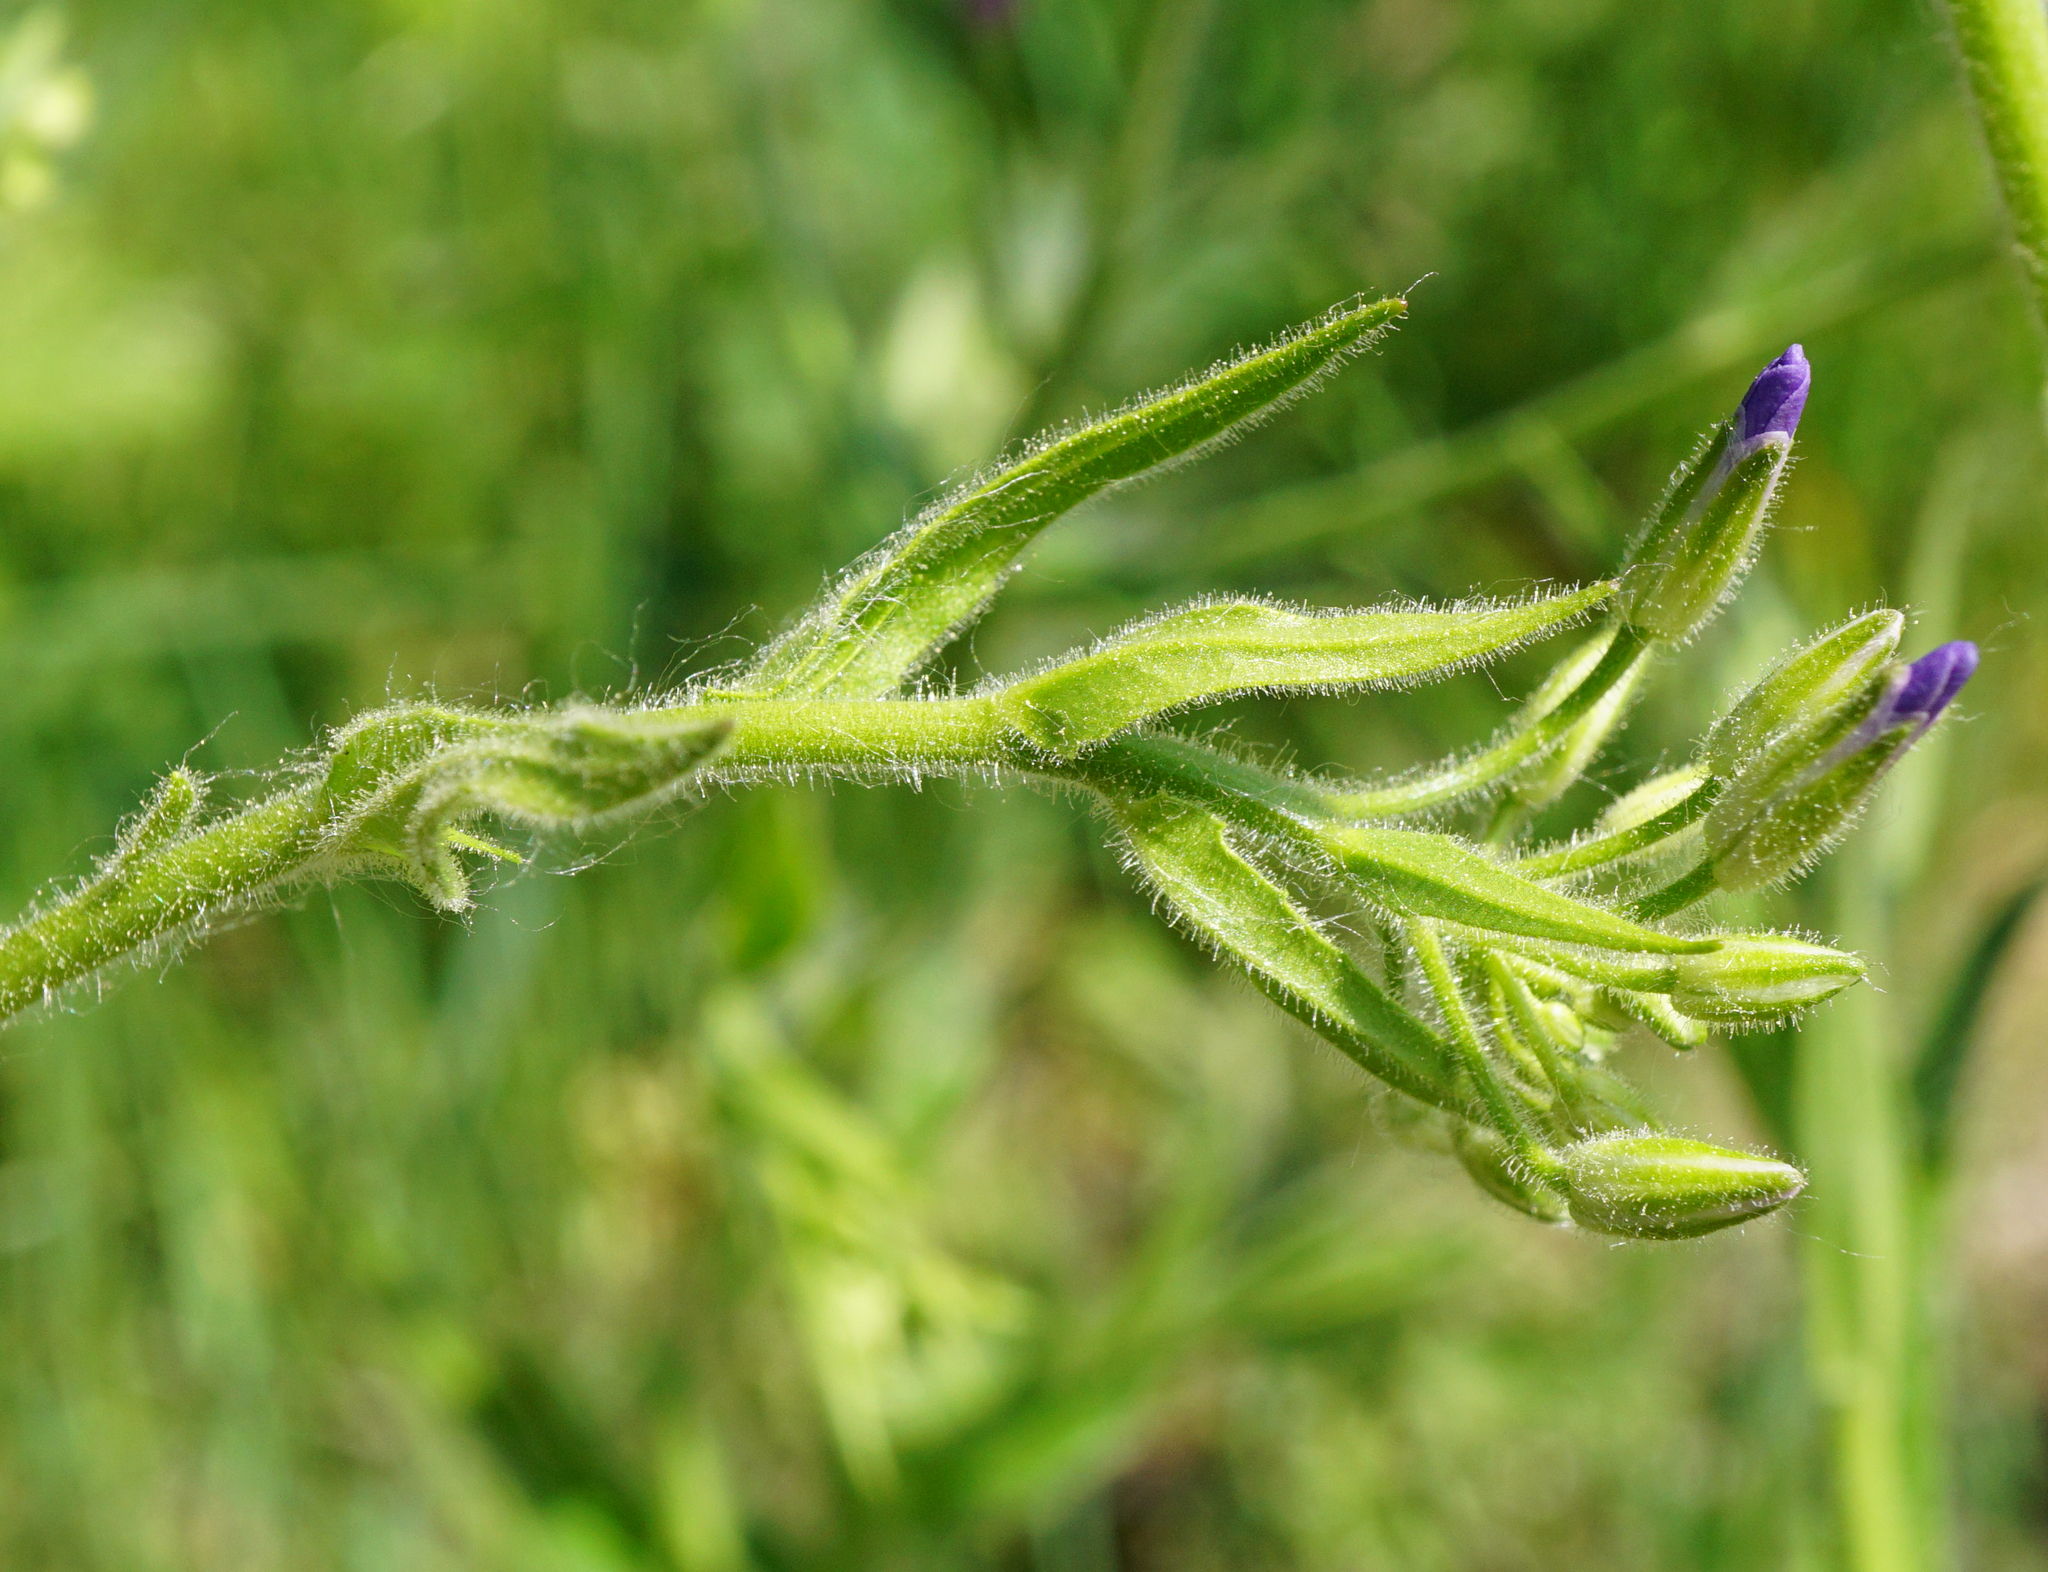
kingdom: Plantae
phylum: Tracheophyta
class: Magnoliopsida
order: Brassicales
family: Brassicaceae
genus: Hesperis
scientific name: Hesperis sylvestris
